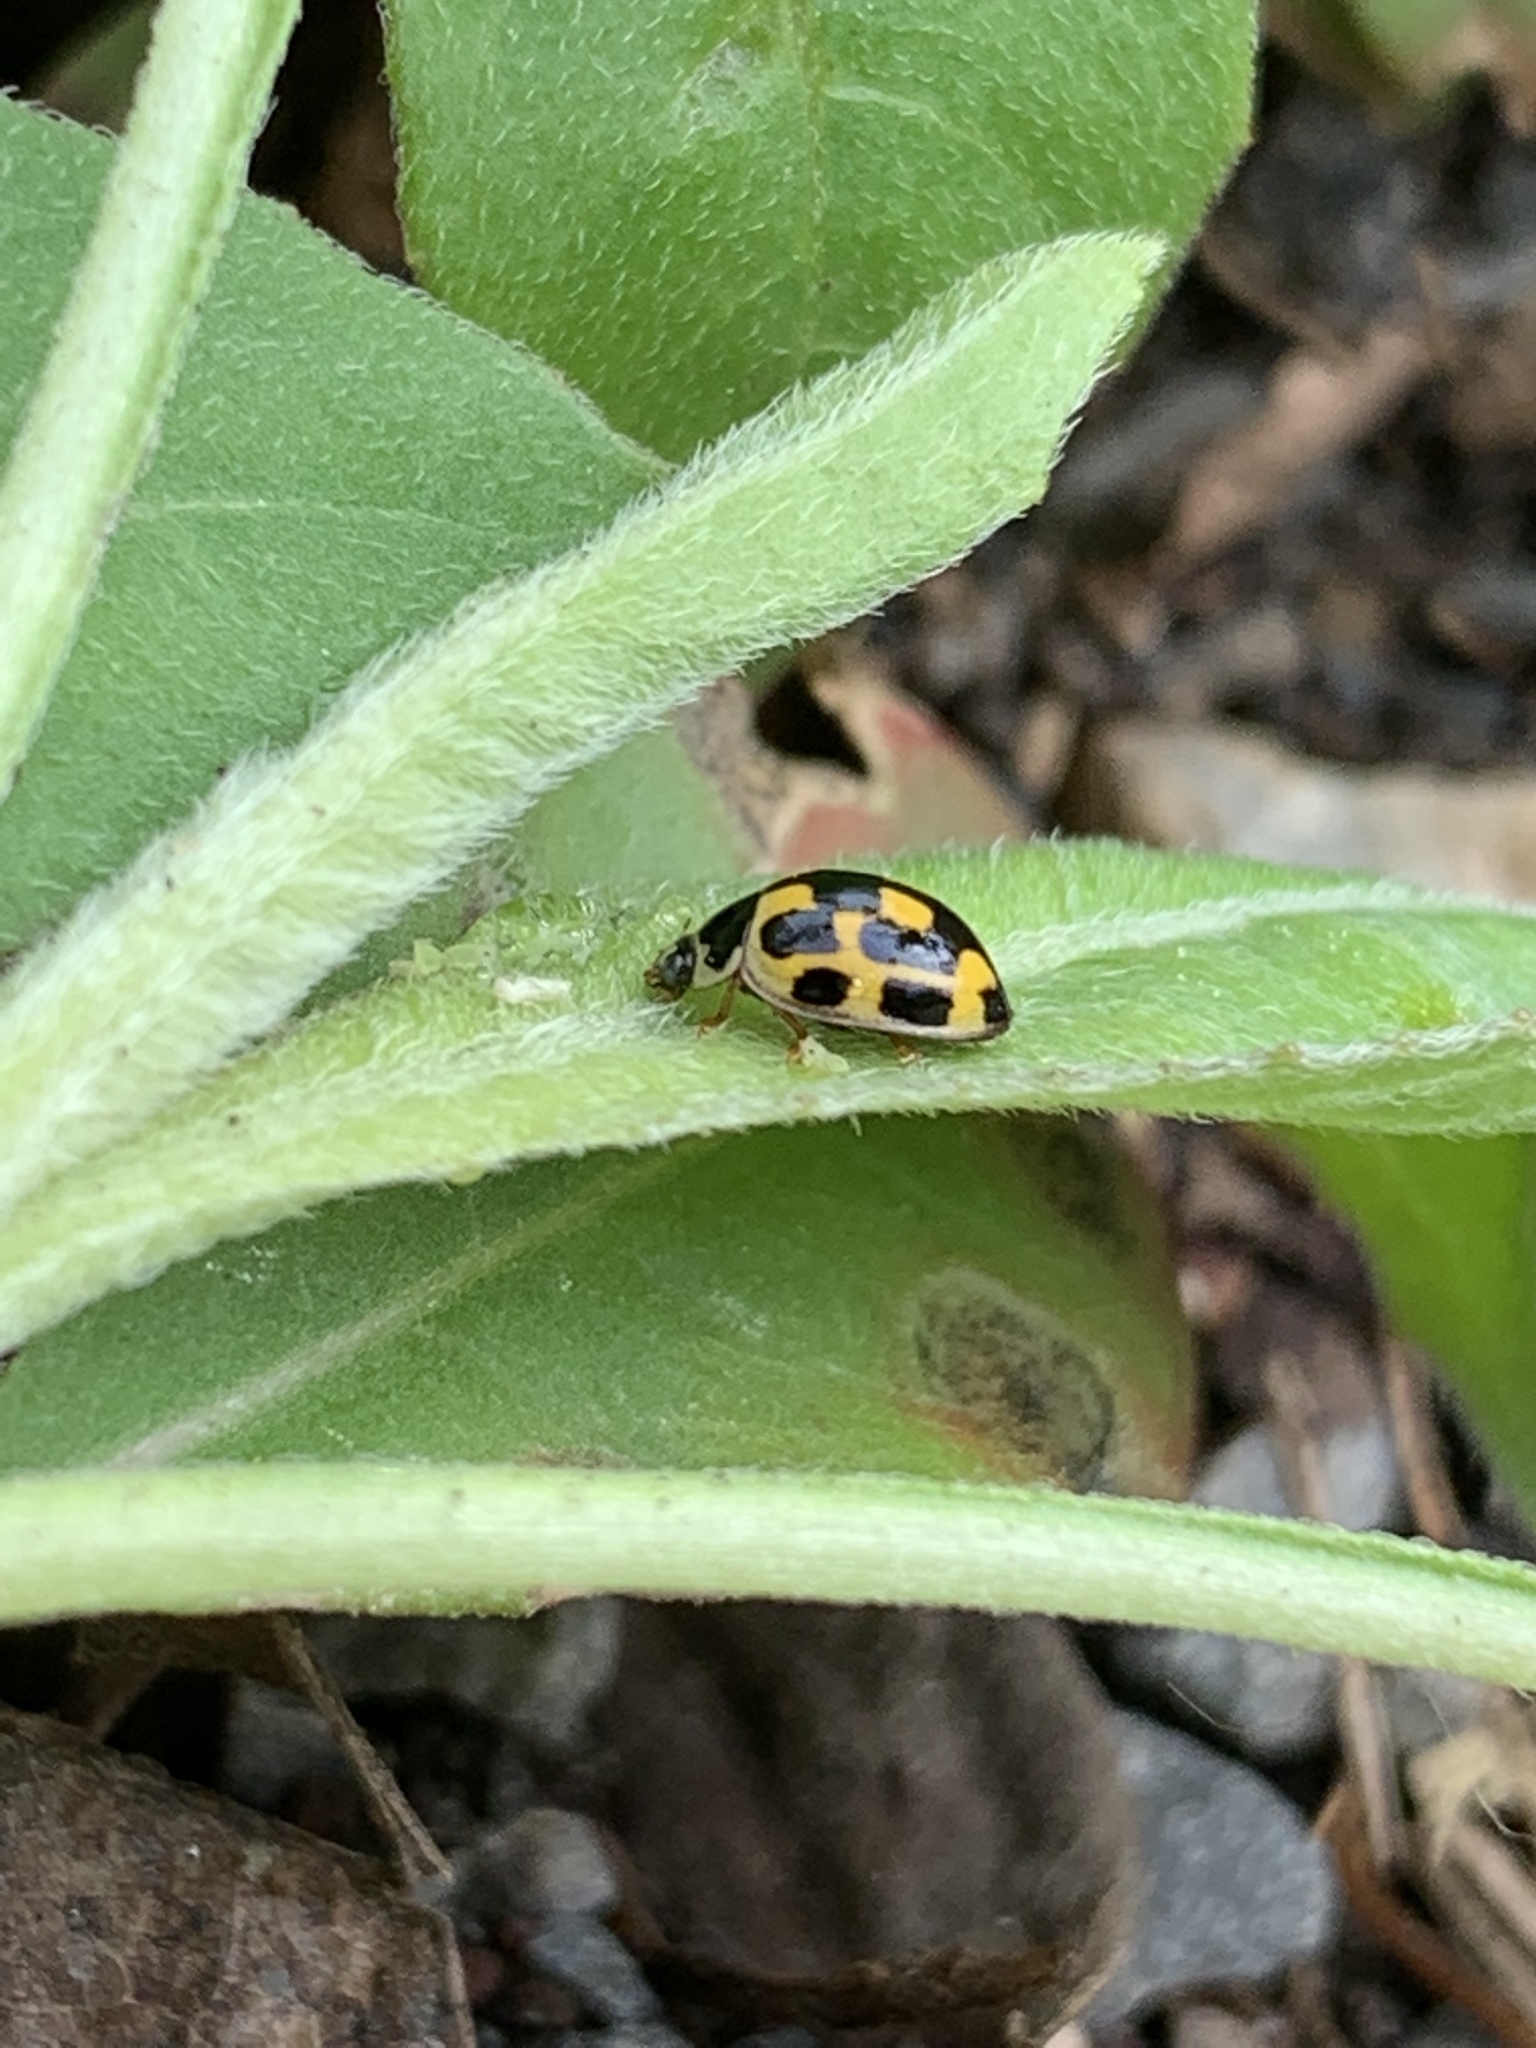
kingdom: Animalia
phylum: Arthropoda
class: Insecta
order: Coleoptera
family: Coccinellidae
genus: Propylaea
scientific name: Propylaea quatuordecimpunctata
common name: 14-spotted ladybird beetle
